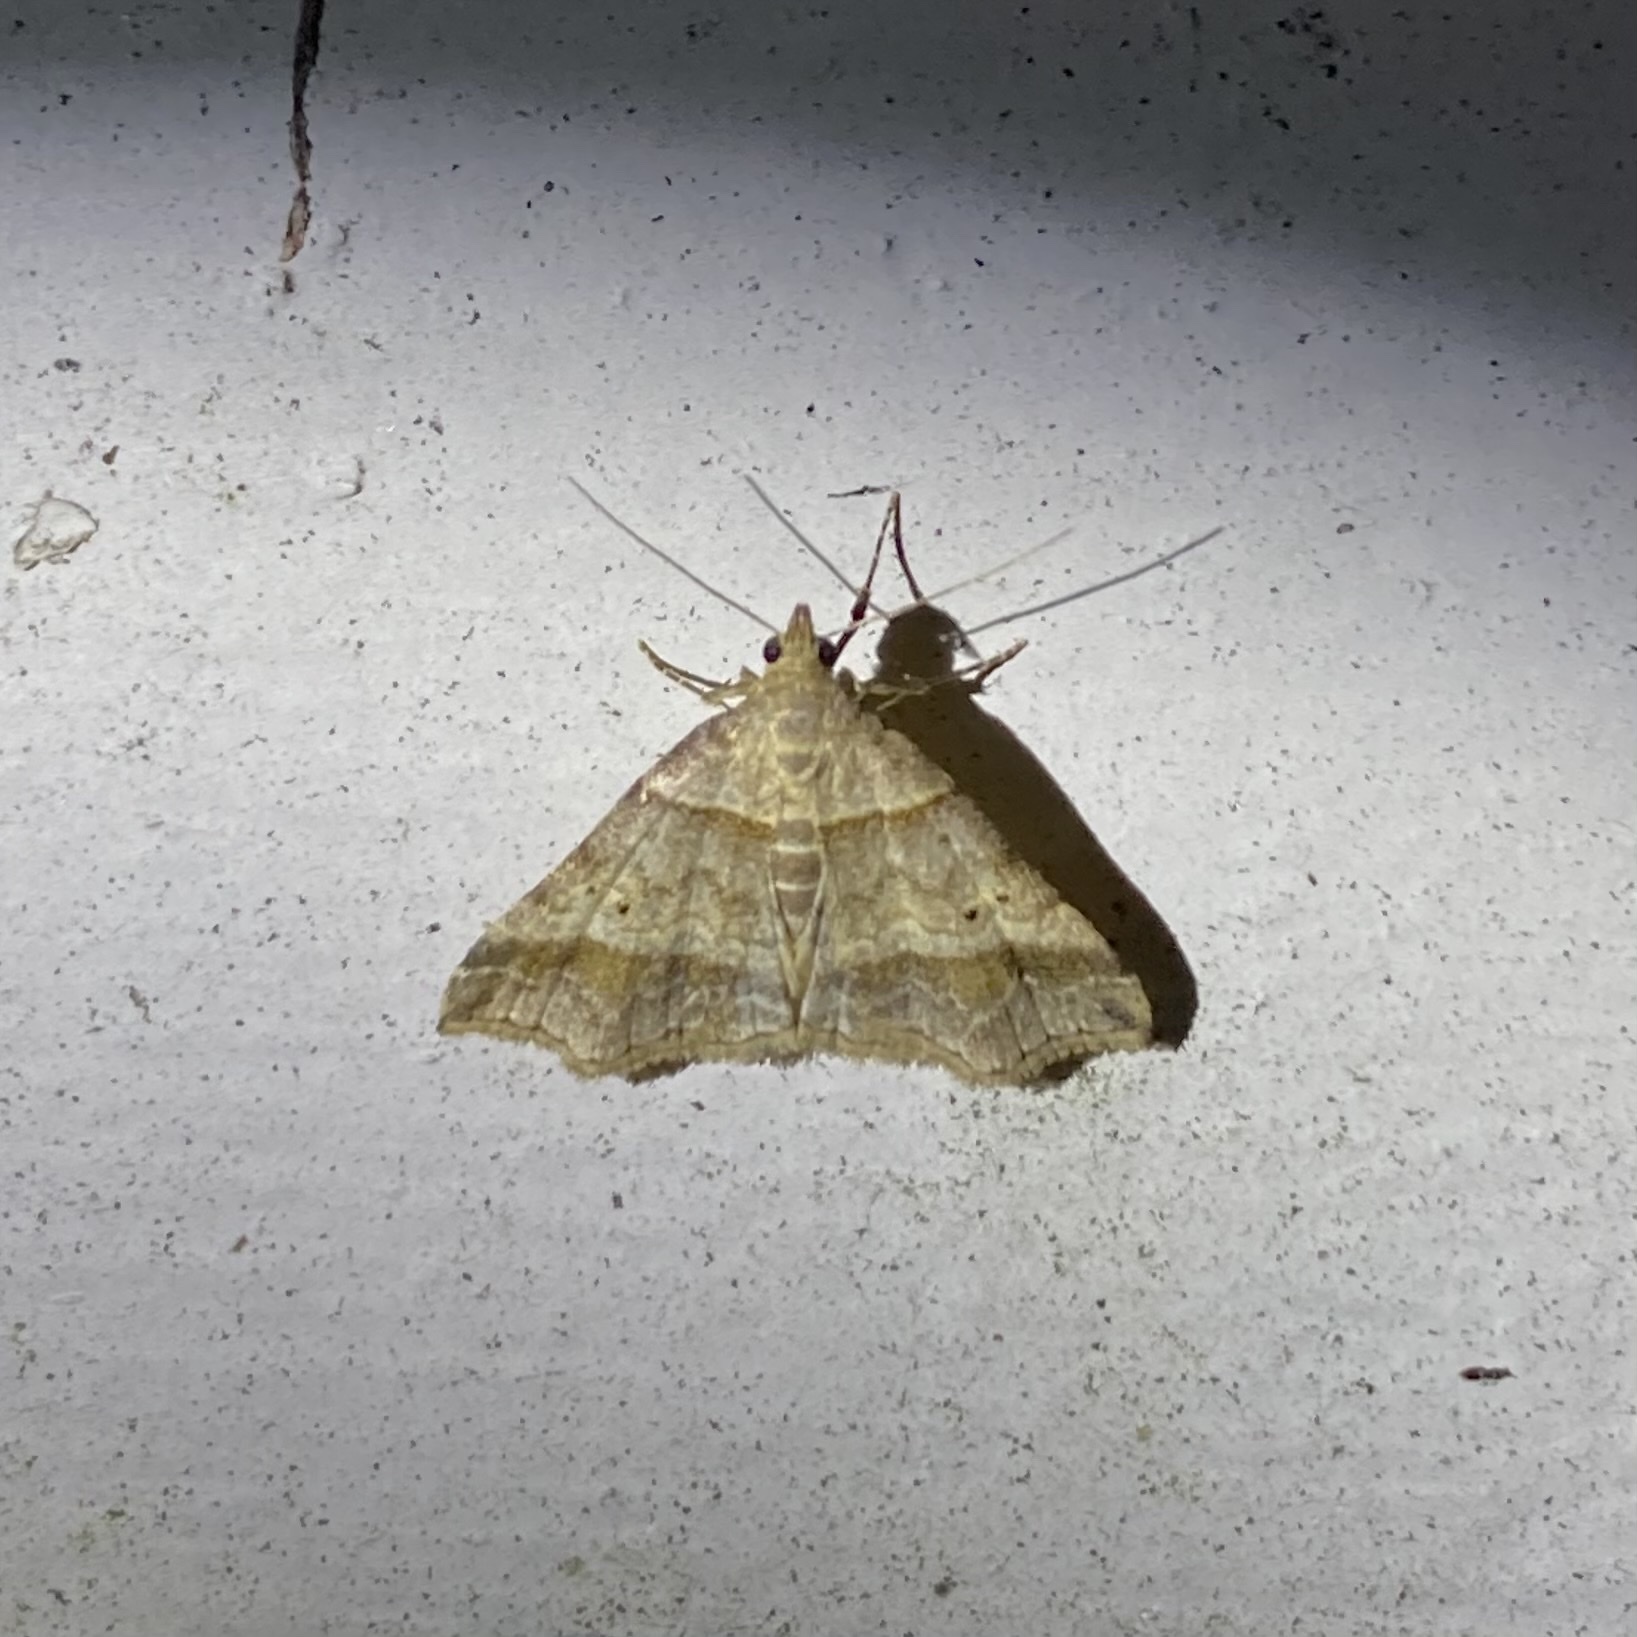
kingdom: Animalia
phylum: Arthropoda
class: Insecta
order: Lepidoptera
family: Erebidae
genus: Phaeolita
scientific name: Phaeolita pyramusalis
